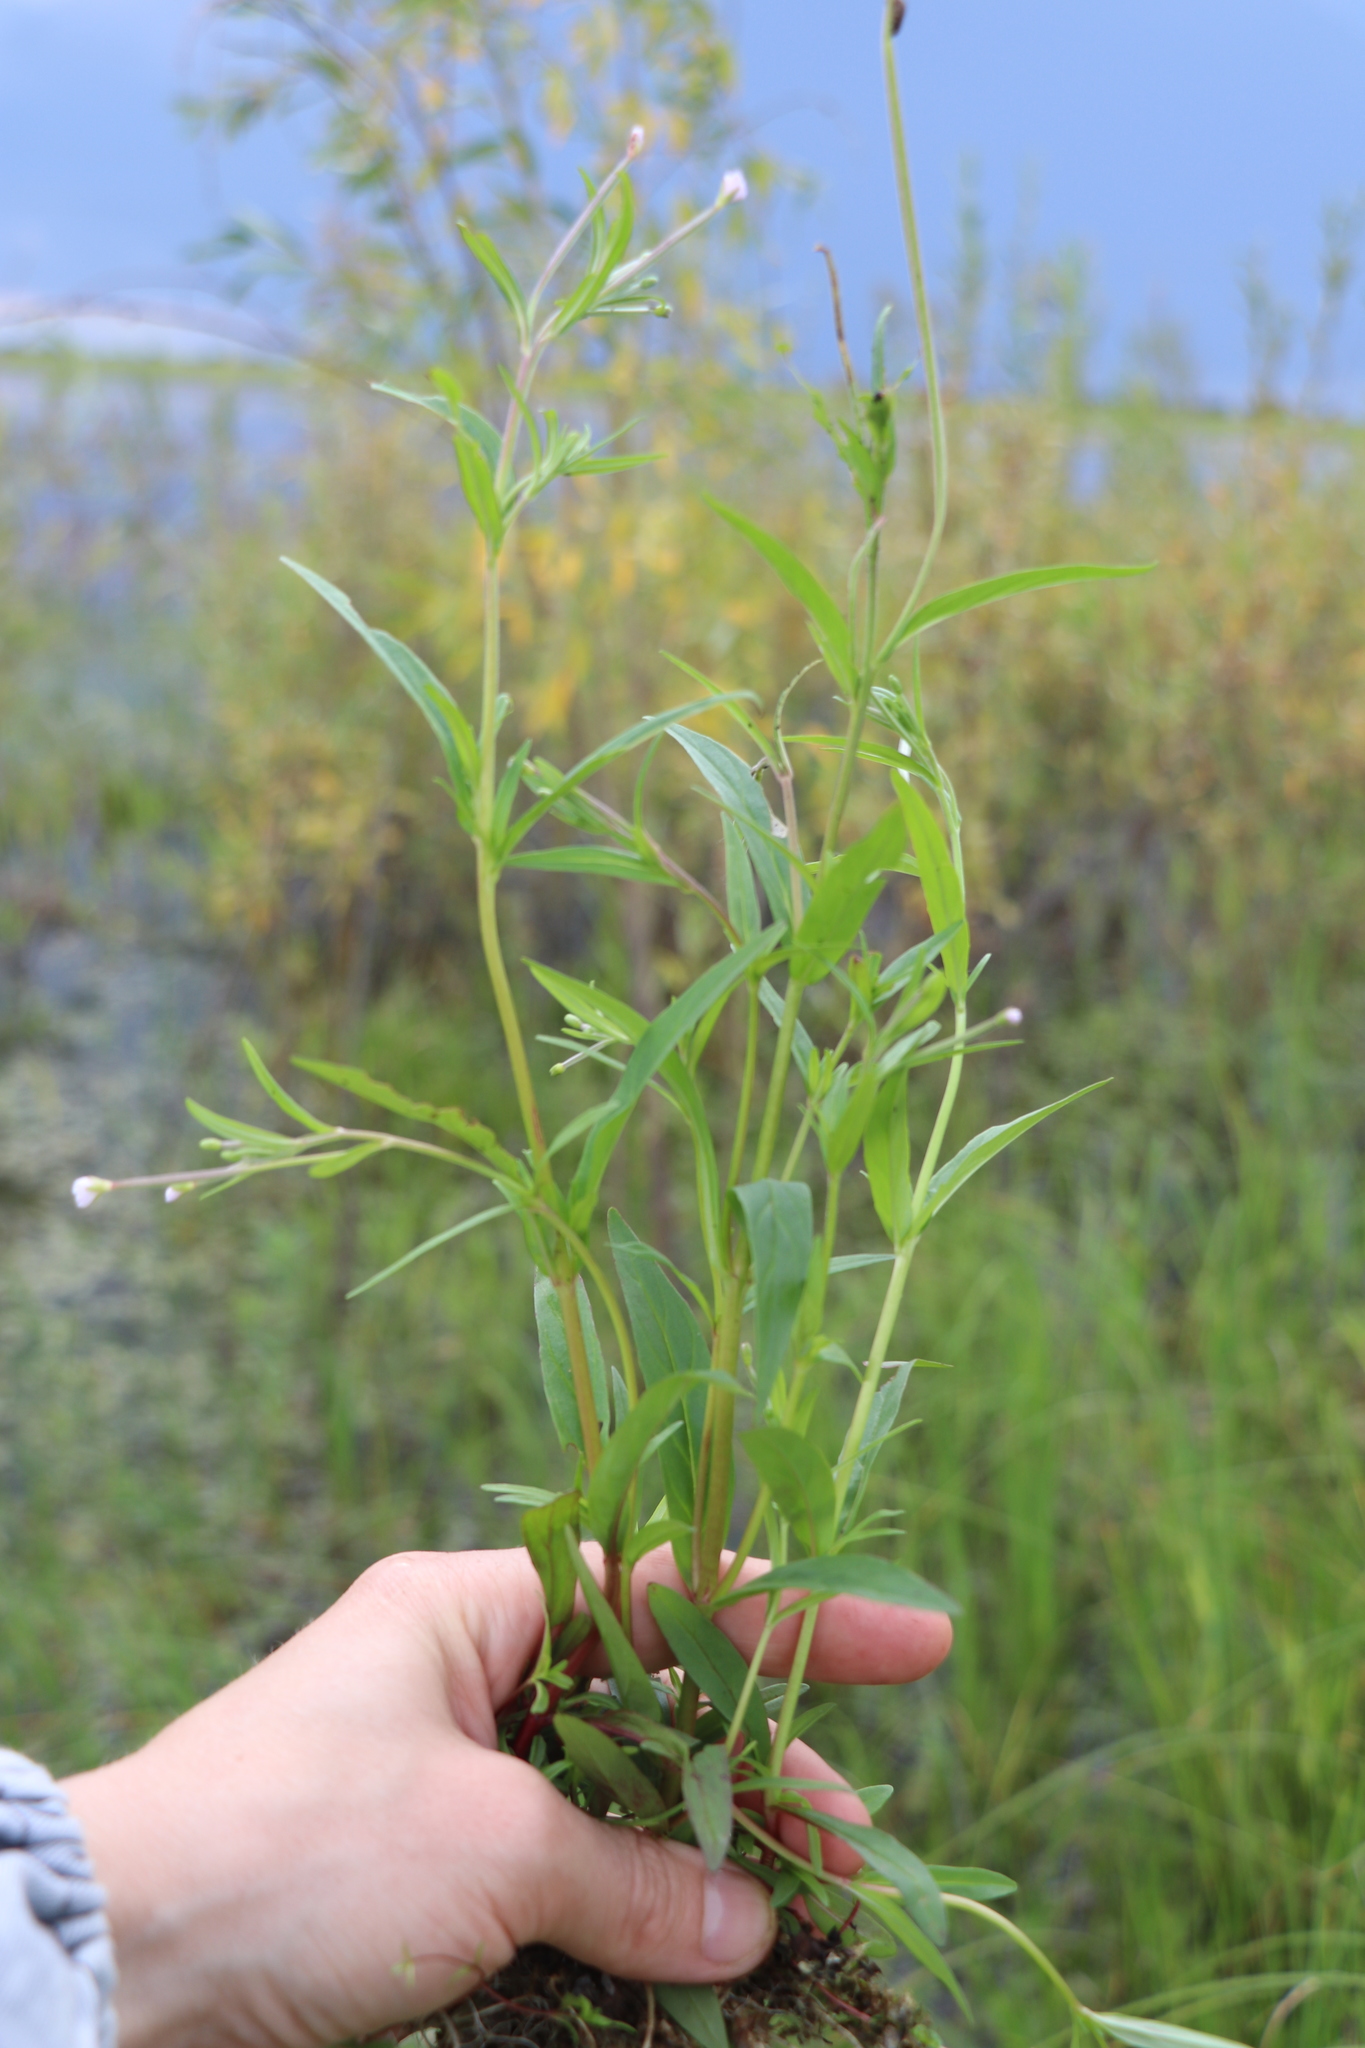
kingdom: Plantae
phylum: Tracheophyta
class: Magnoliopsida
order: Myrtales
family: Onagraceae
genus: Epilobium
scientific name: Epilobium palustre
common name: Marsh willowherb
